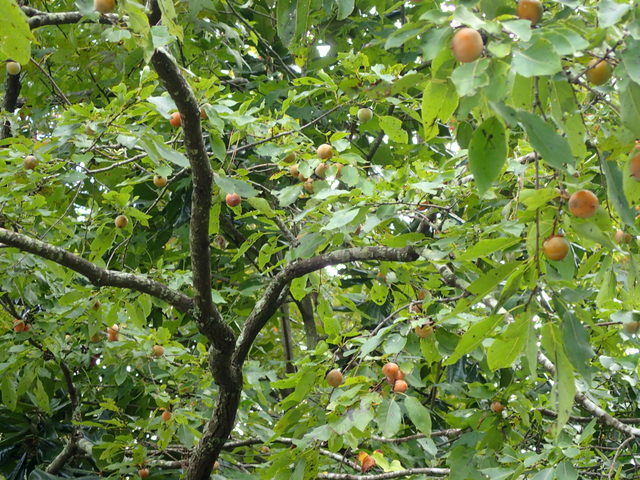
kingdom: Plantae
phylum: Tracheophyta
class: Magnoliopsida
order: Ericales
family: Ebenaceae
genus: Diospyros
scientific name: Diospyros virginiana
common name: Persimmon
